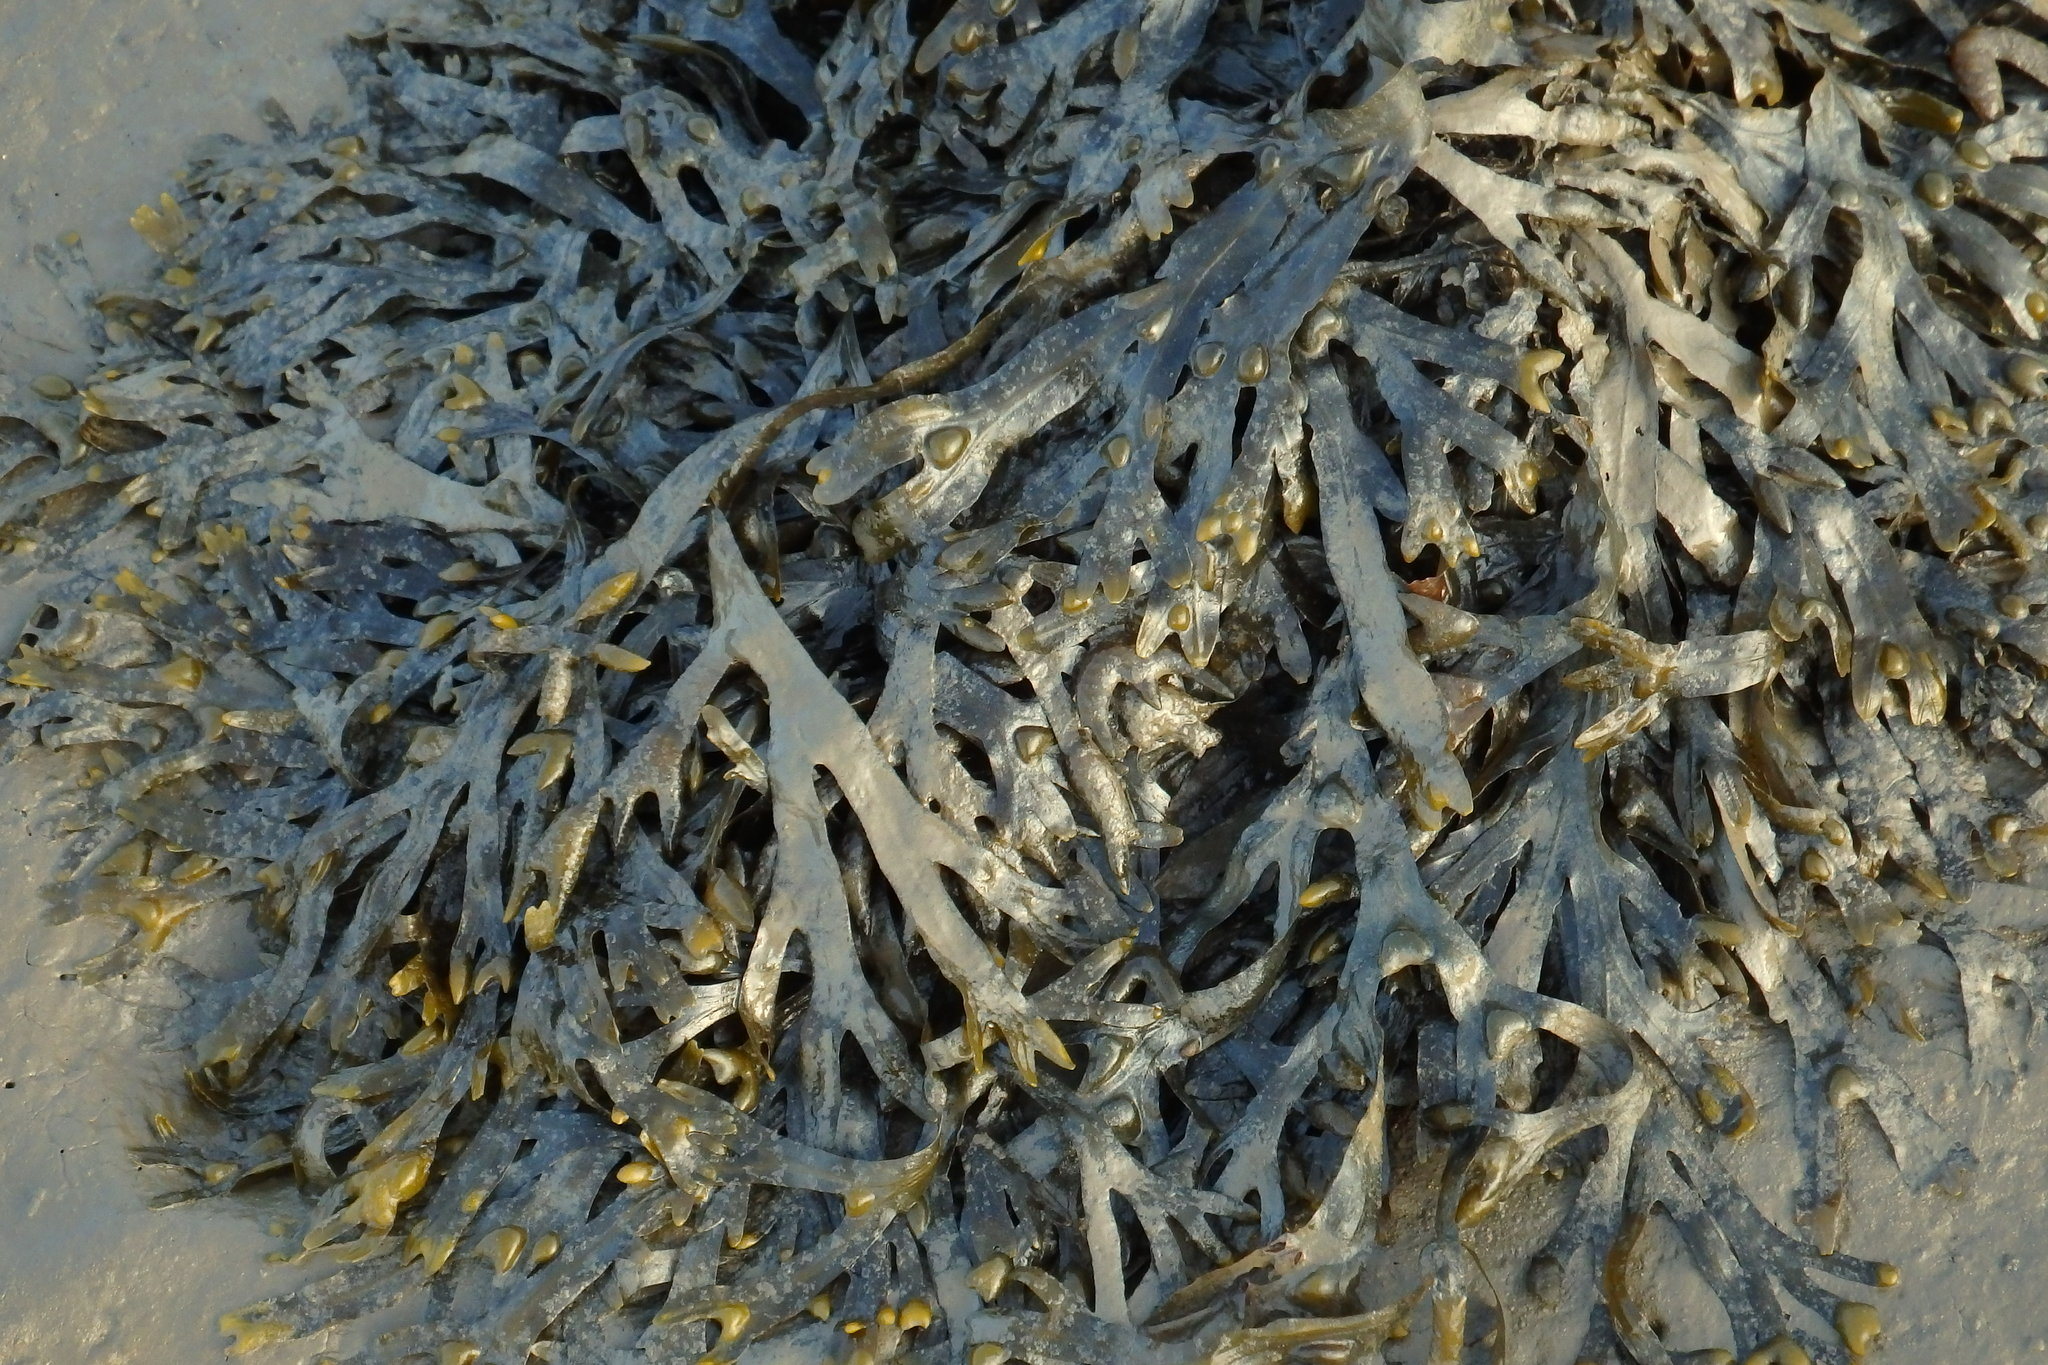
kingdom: Chromista
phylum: Ochrophyta
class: Phaeophyceae
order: Fucales
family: Fucaceae
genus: Fucus
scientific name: Fucus vesiculosus
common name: Bladder wrack
